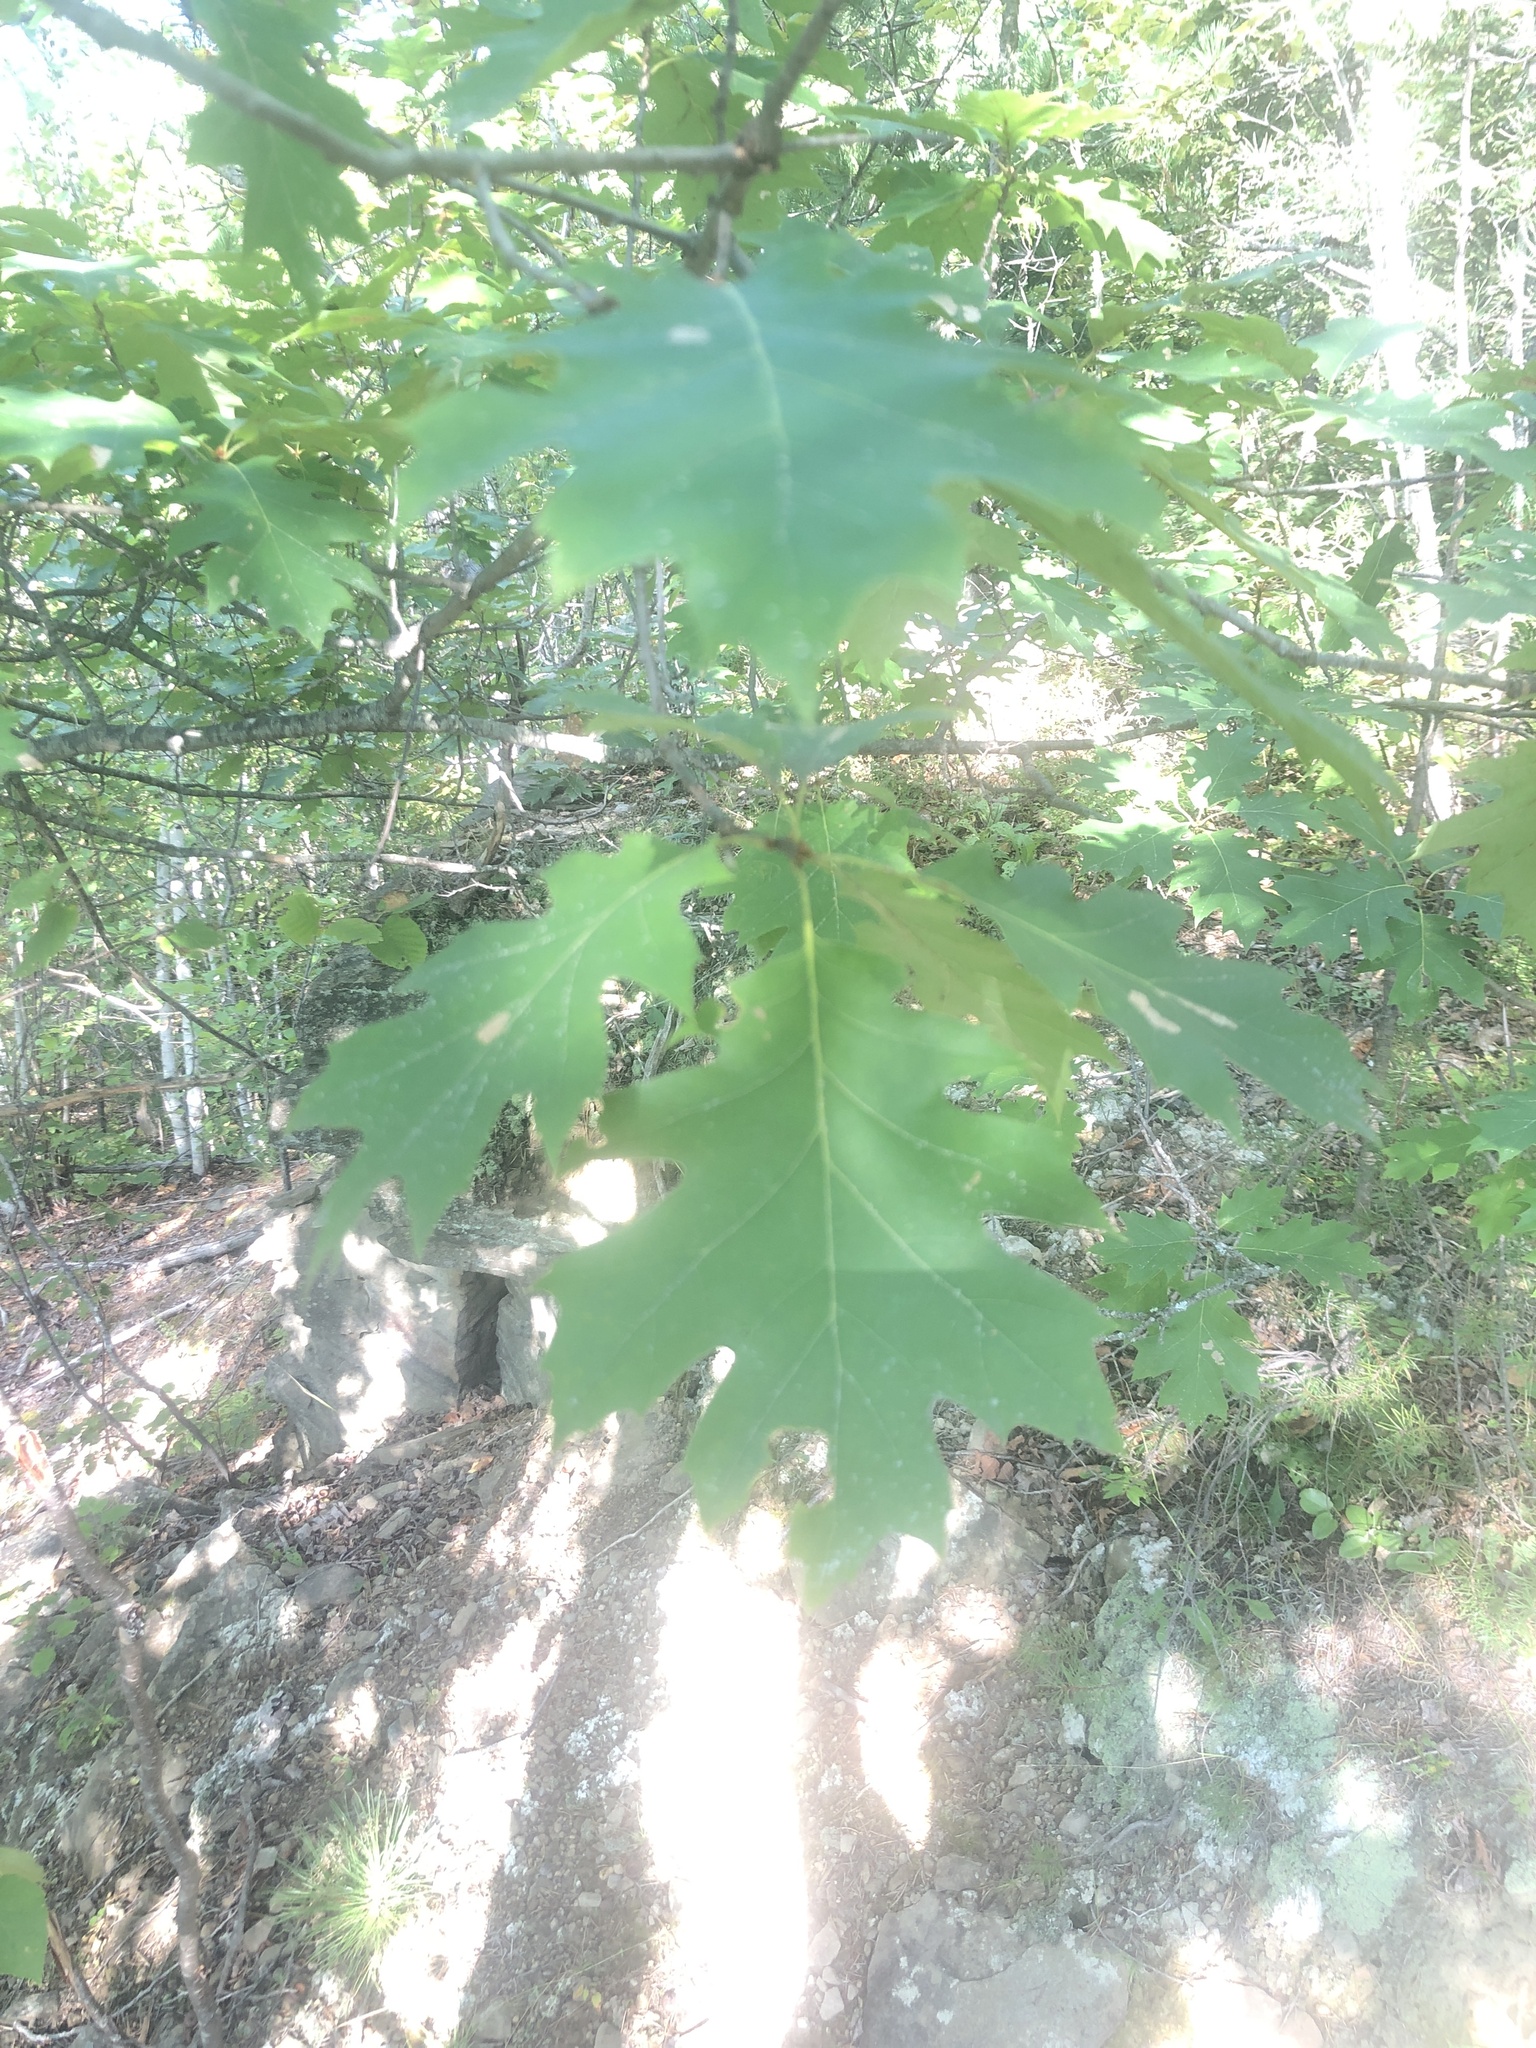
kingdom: Plantae
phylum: Tracheophyta
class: Magnoliopsida
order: Fagales
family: Fagaceae
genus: Quercus
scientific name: Quercus rubra
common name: Red oak
